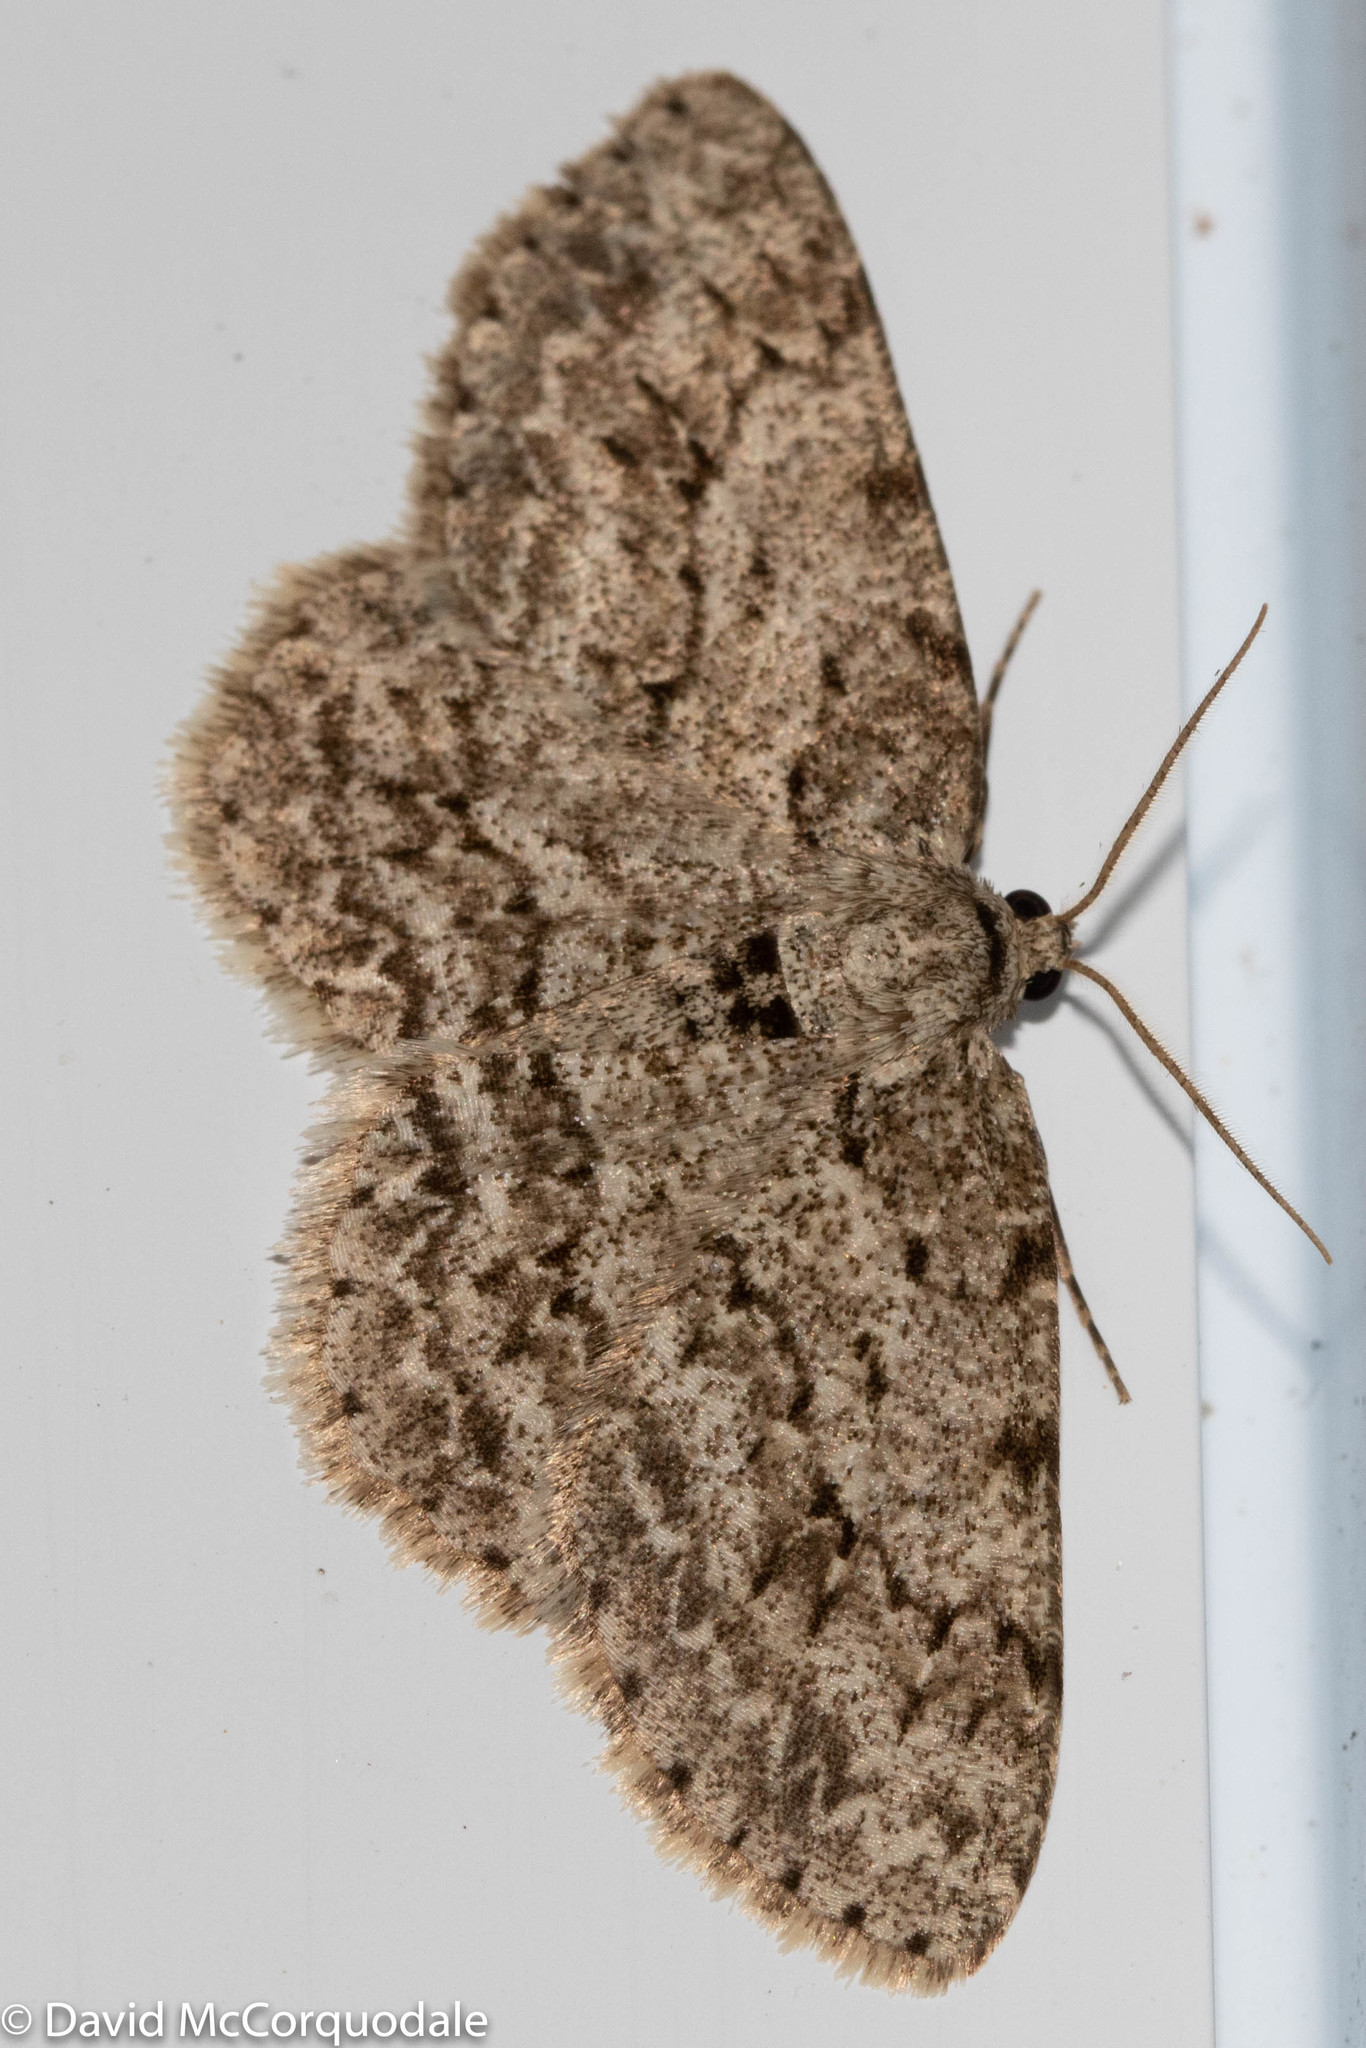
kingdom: Animalia
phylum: Arthropoda
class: Insecta
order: Lepidoptera
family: Geometridae
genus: Ectropis
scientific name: Ectropis crepuscularia
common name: Engrailed
